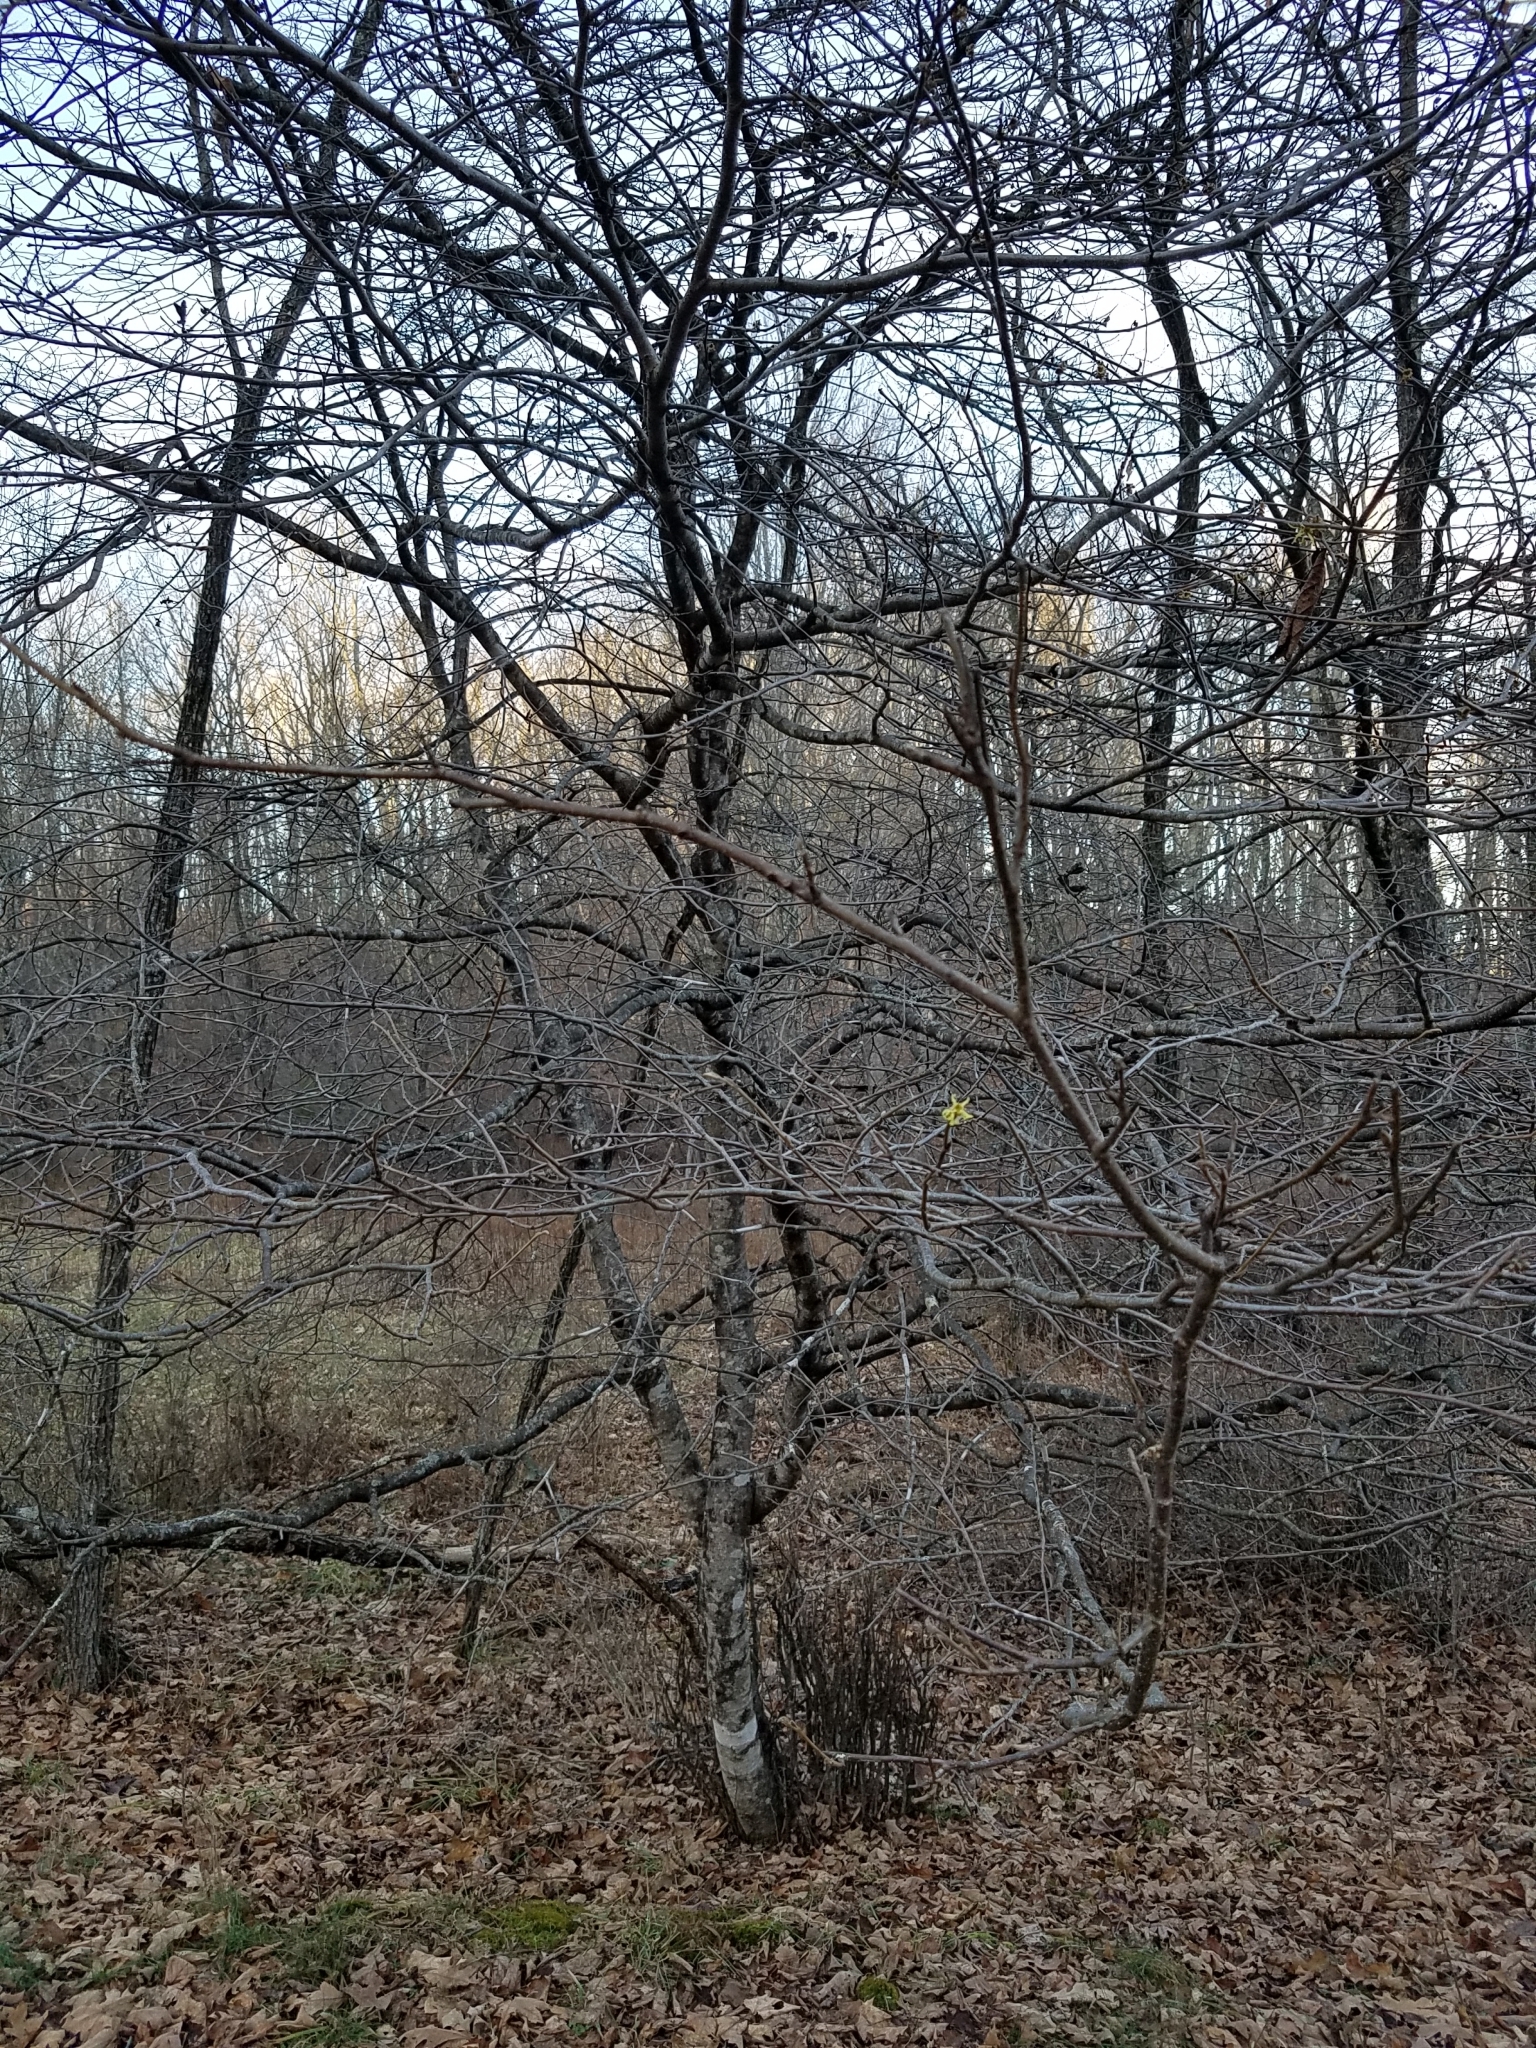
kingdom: Plantae
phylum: Tracheophyta
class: Magnoliopsida
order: Saxifragales
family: Hamamelidaceae
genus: Hamamelis
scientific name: Hamamelis virginiana
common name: Witch-hazel
